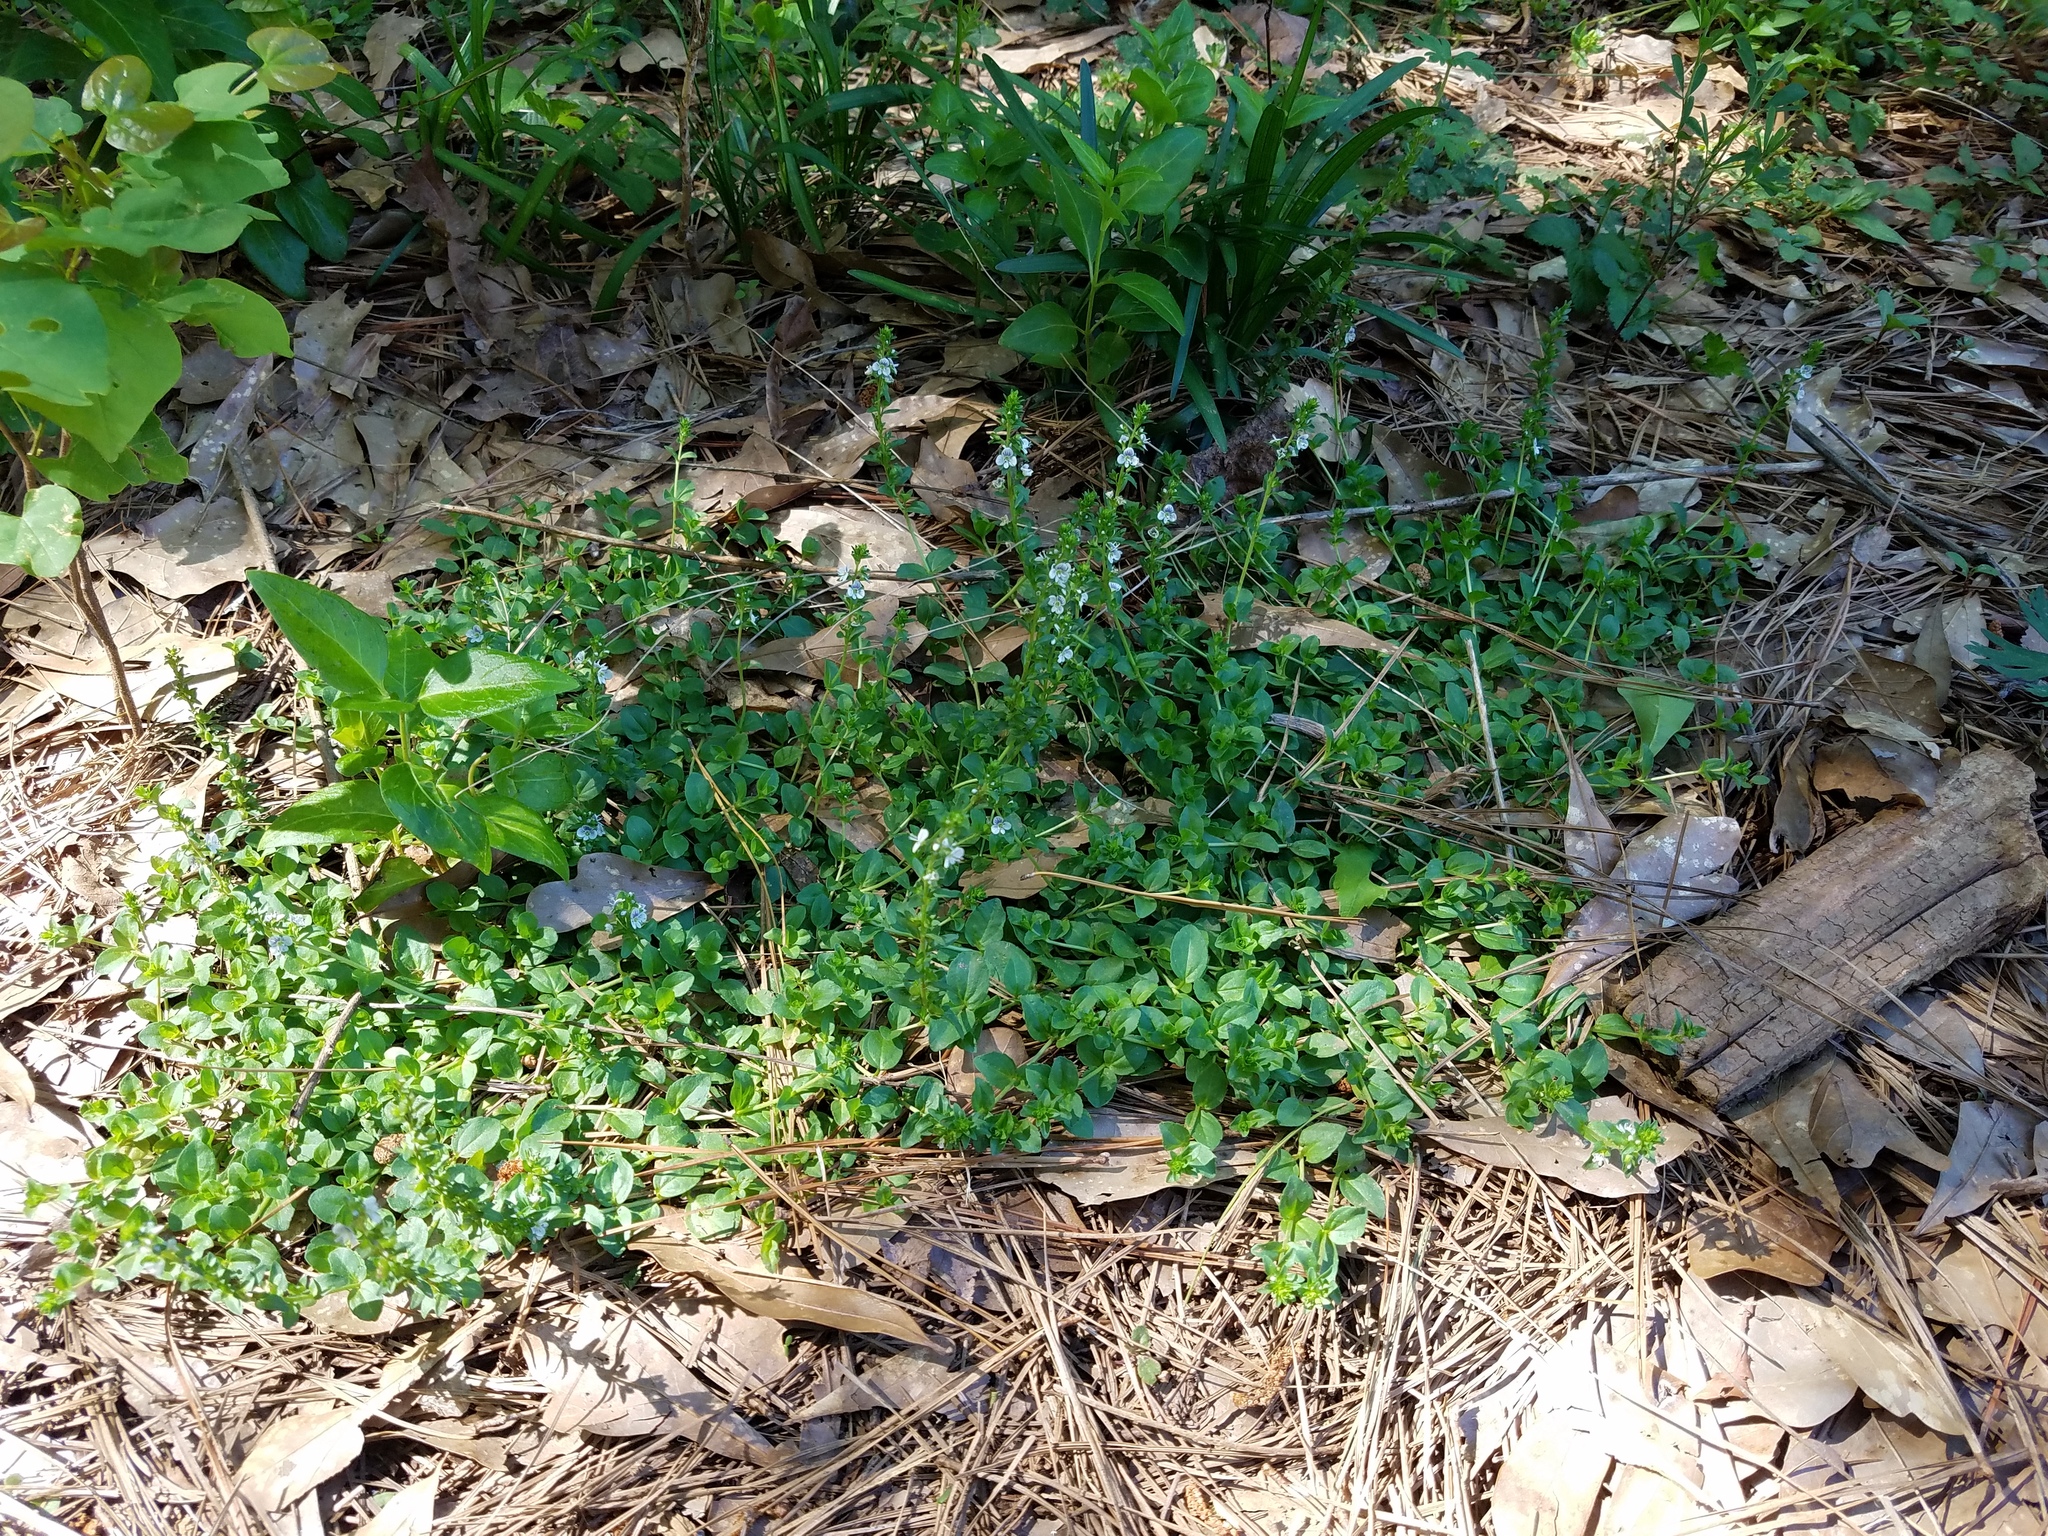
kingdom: Plantae
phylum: Tracheophyta
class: Magnoliopsida
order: Lamiales
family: Plantaginaceae
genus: Veronica
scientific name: Veronica serpyllifolia
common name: Thyme-leaved speedwell
